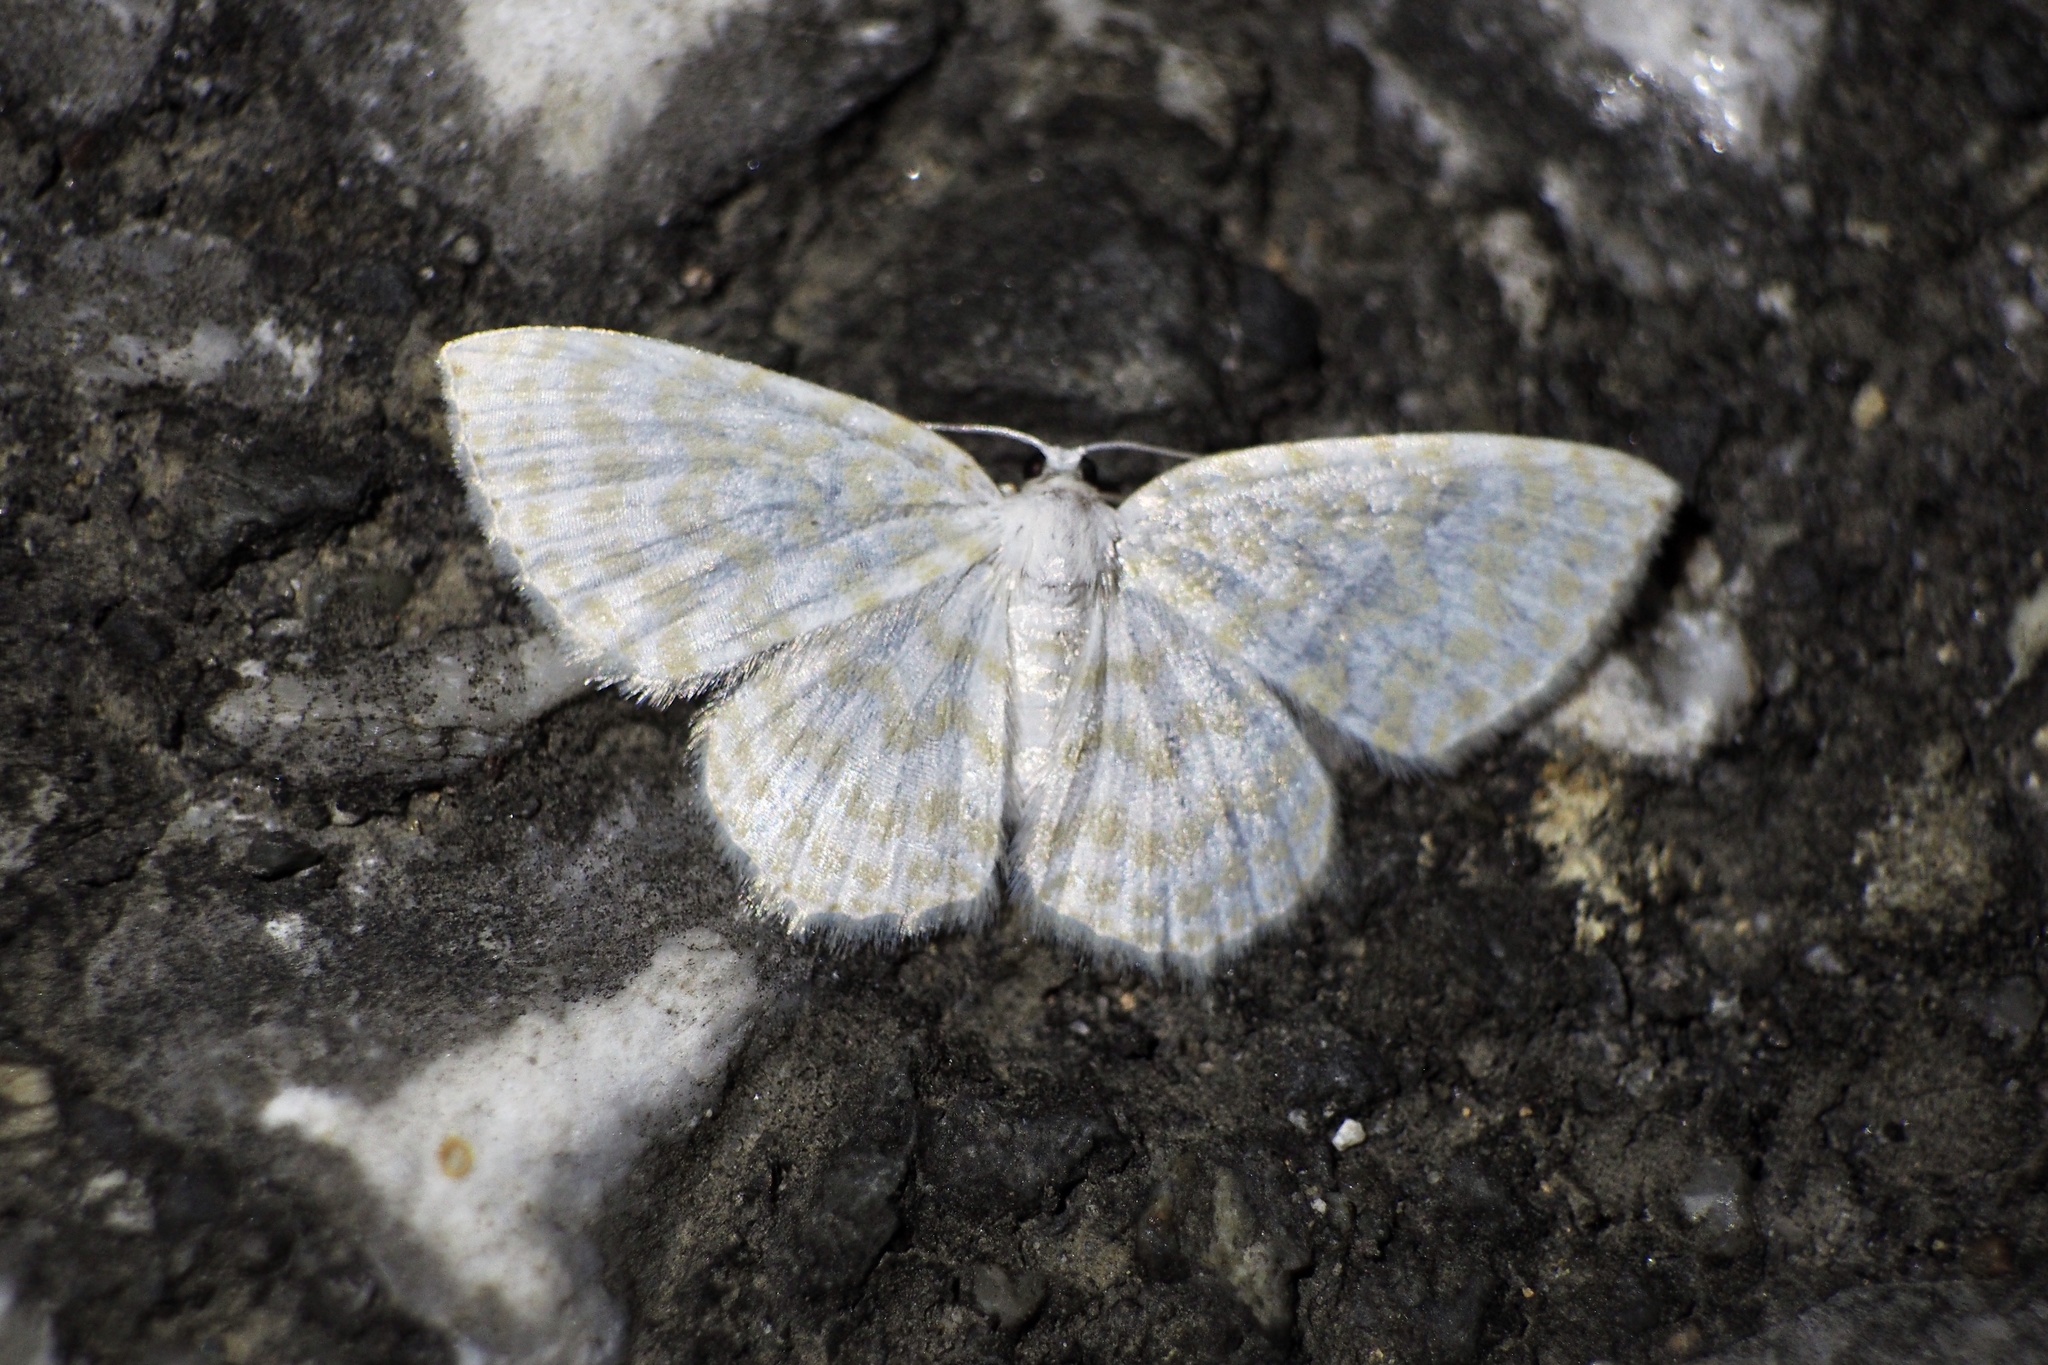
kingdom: Animalia
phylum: Arthropoda
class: Insecta
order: Lepidoptera
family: Geometridae
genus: Asthena
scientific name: Asthena nymphaeata
